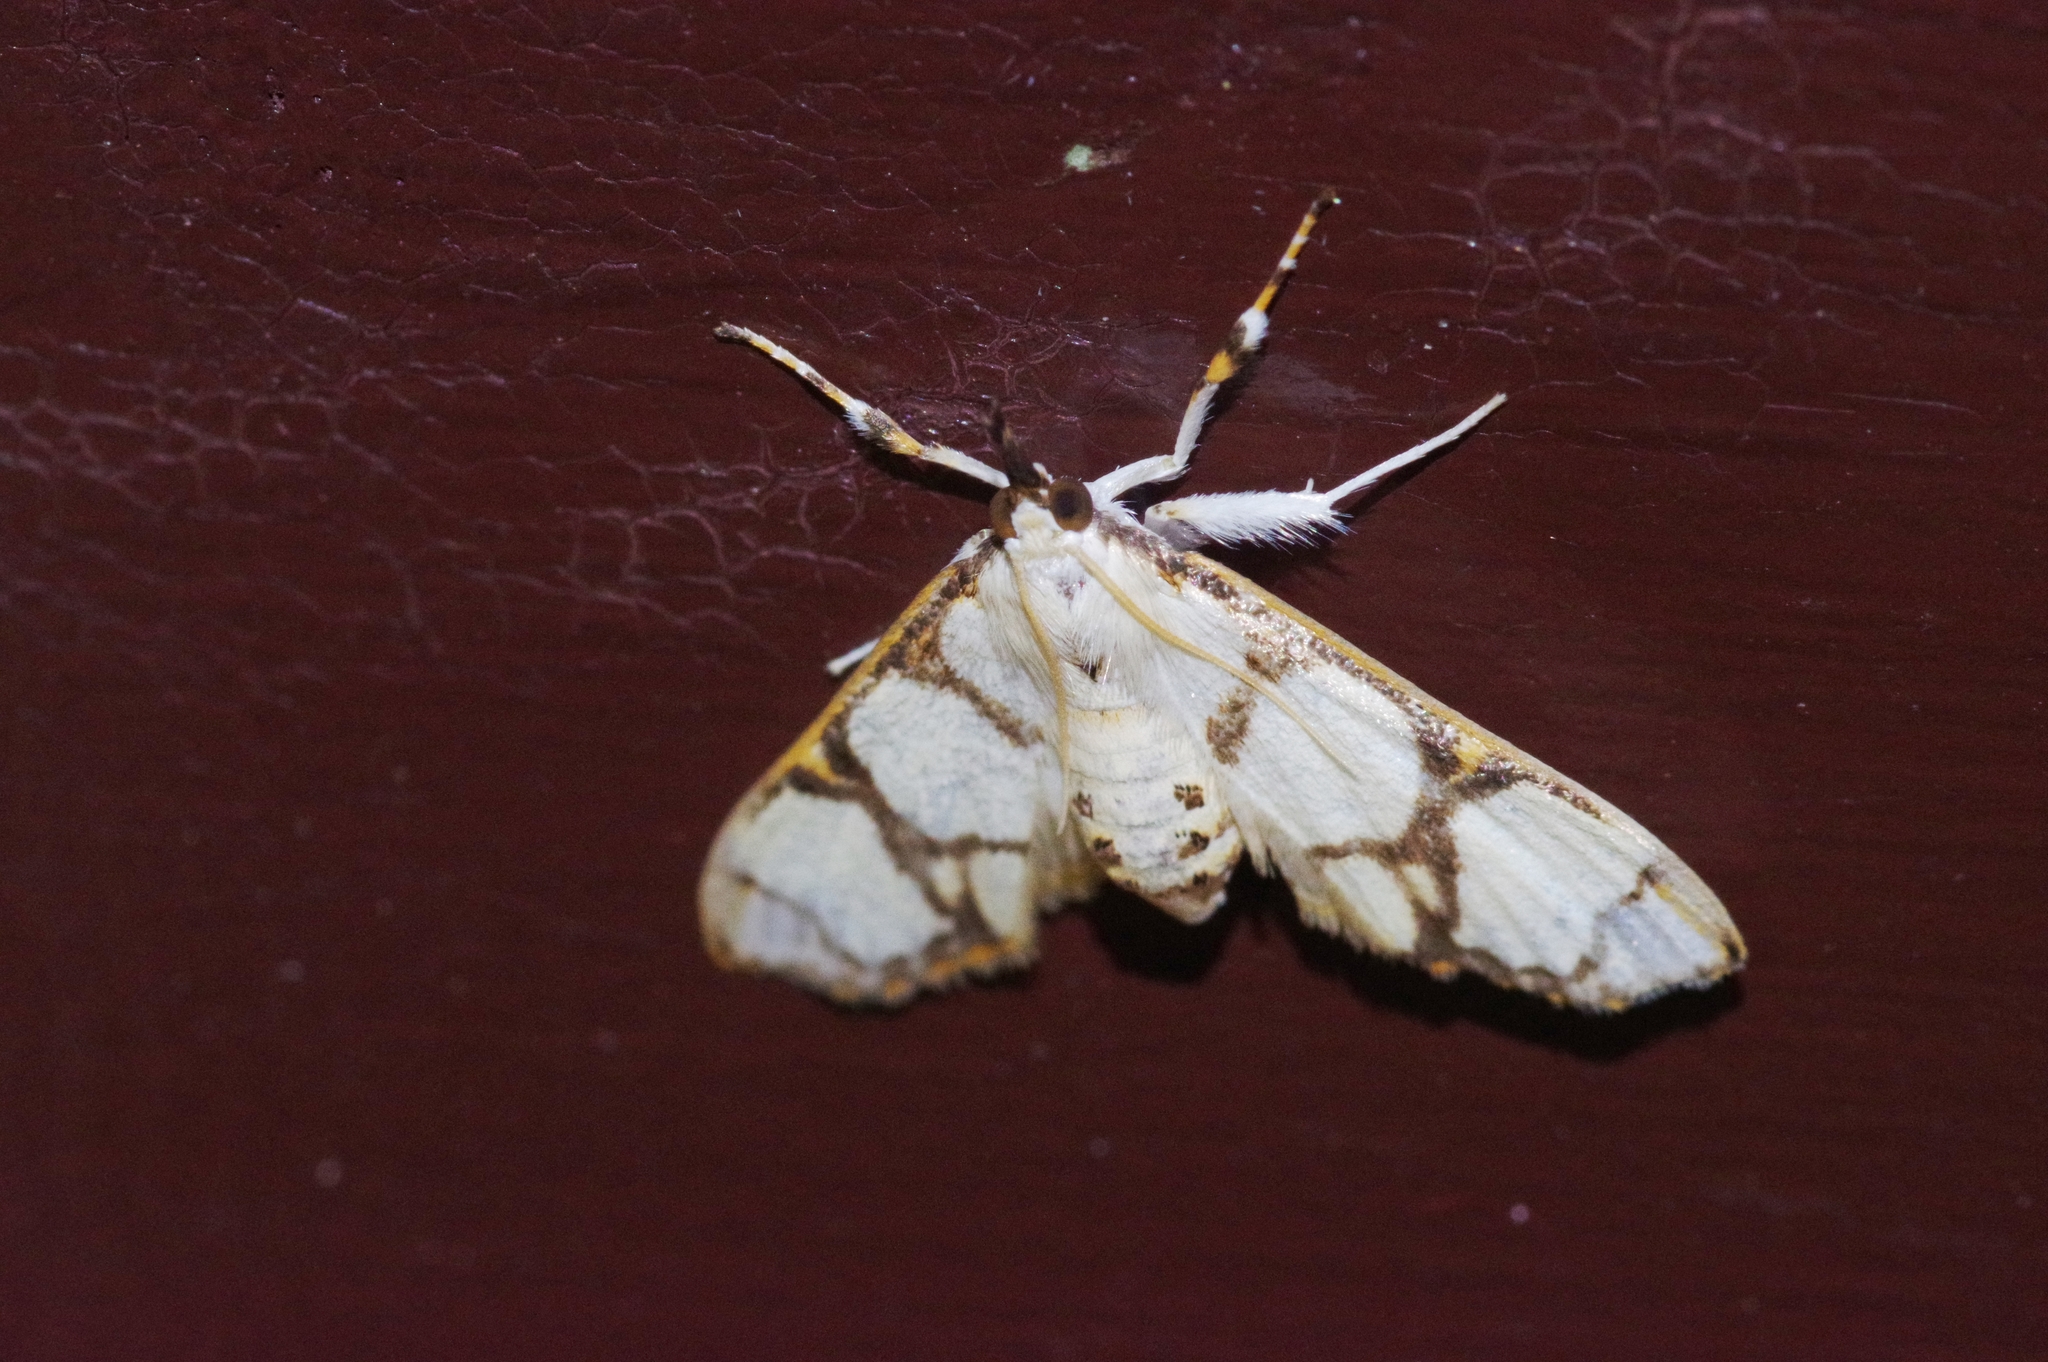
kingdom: Animalia
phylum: Arthropoda
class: Insecta
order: Lepidoptera
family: Crambidae
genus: Cirrhochrista
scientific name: Cirrhochrista kosemponialis
